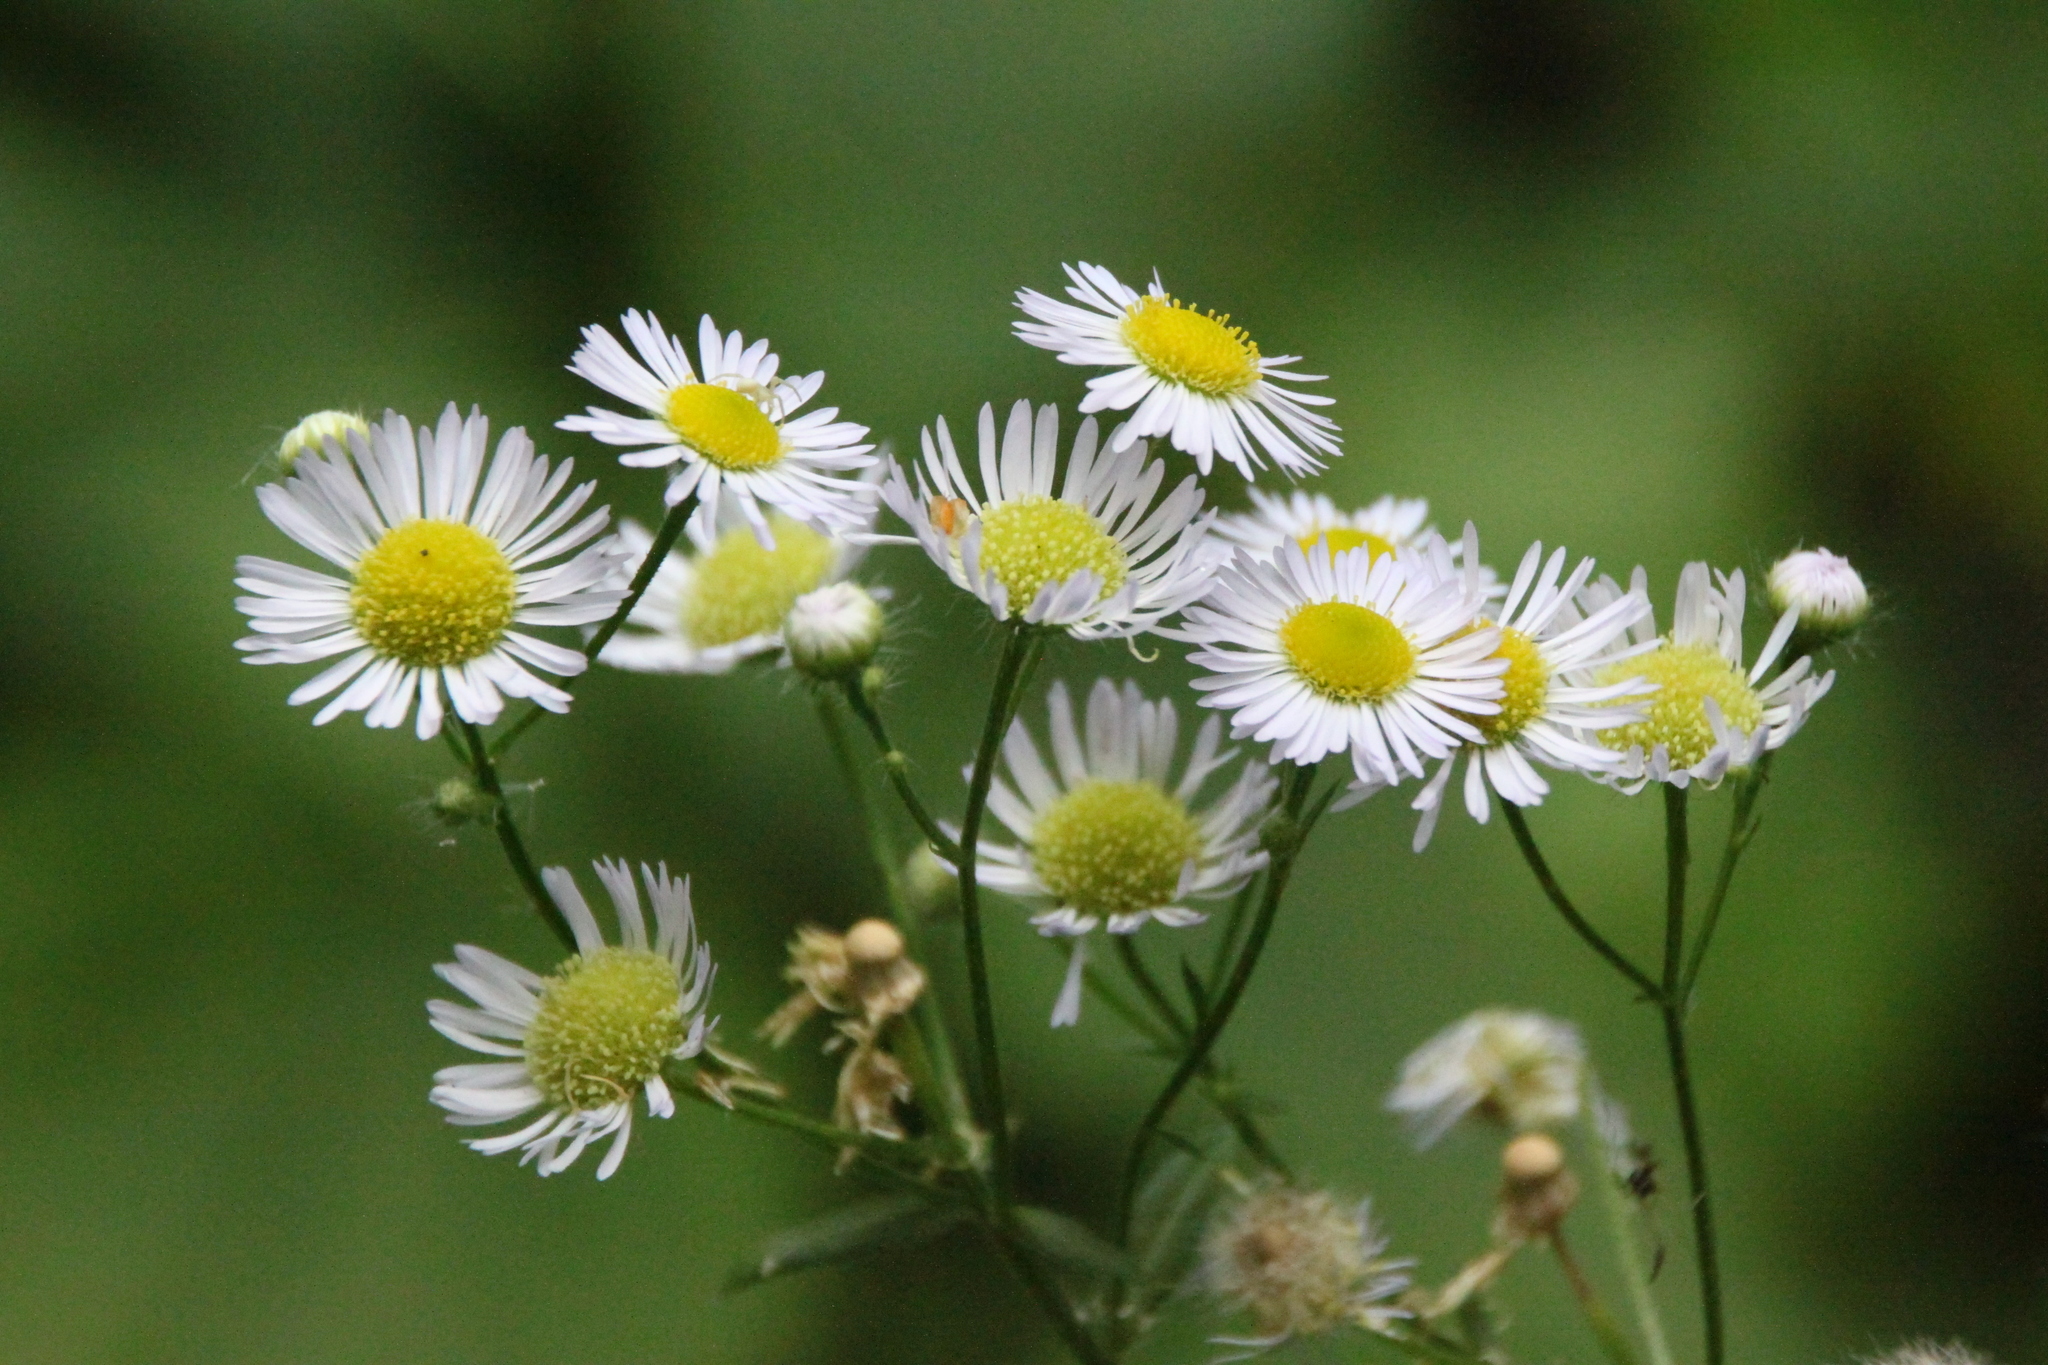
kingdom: Plantae
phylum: Tracheophyta
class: Magnoliopsida
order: Asterales
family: Asteraceae
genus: Erigeron
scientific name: Erigeron annuus
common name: Tall fleabane
